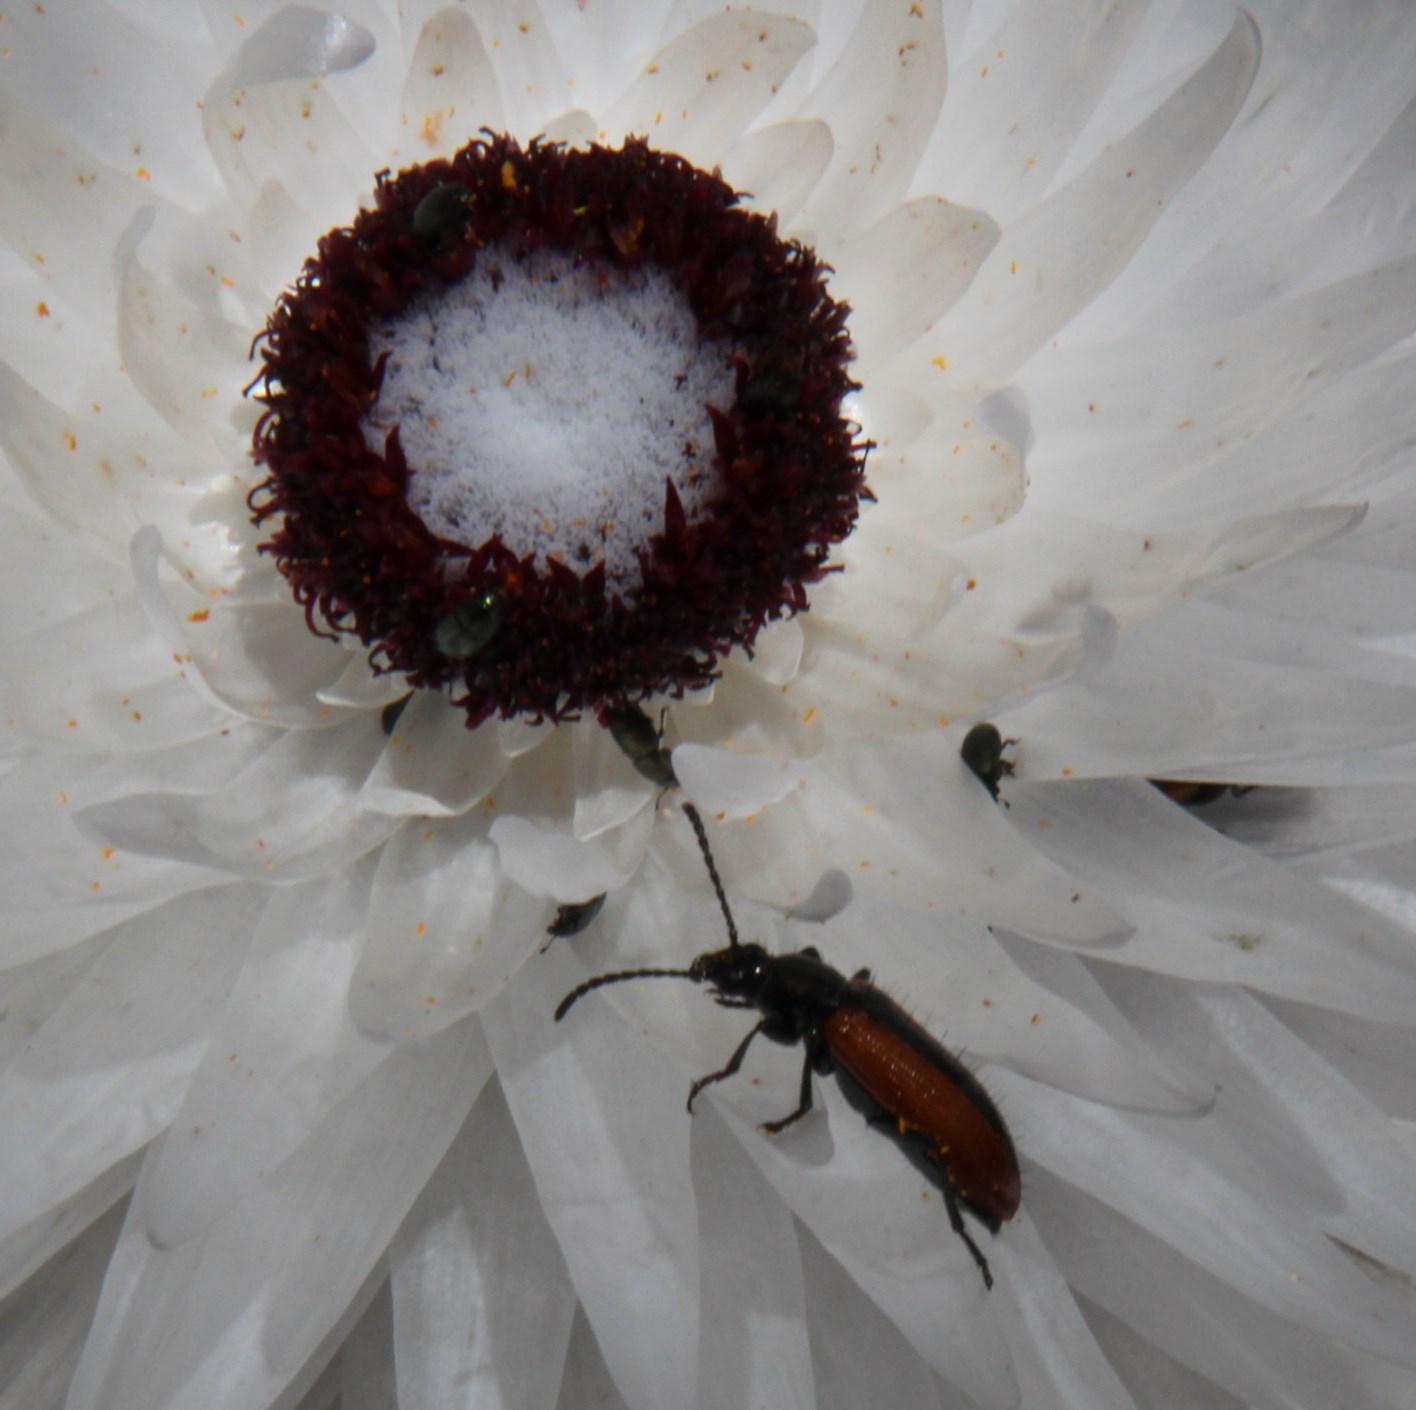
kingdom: Plantae
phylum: Tracheophyta
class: Magnoliopsida
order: Asterales
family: Asteraceae
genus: Syncarpha
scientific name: Syncarpha vestita
